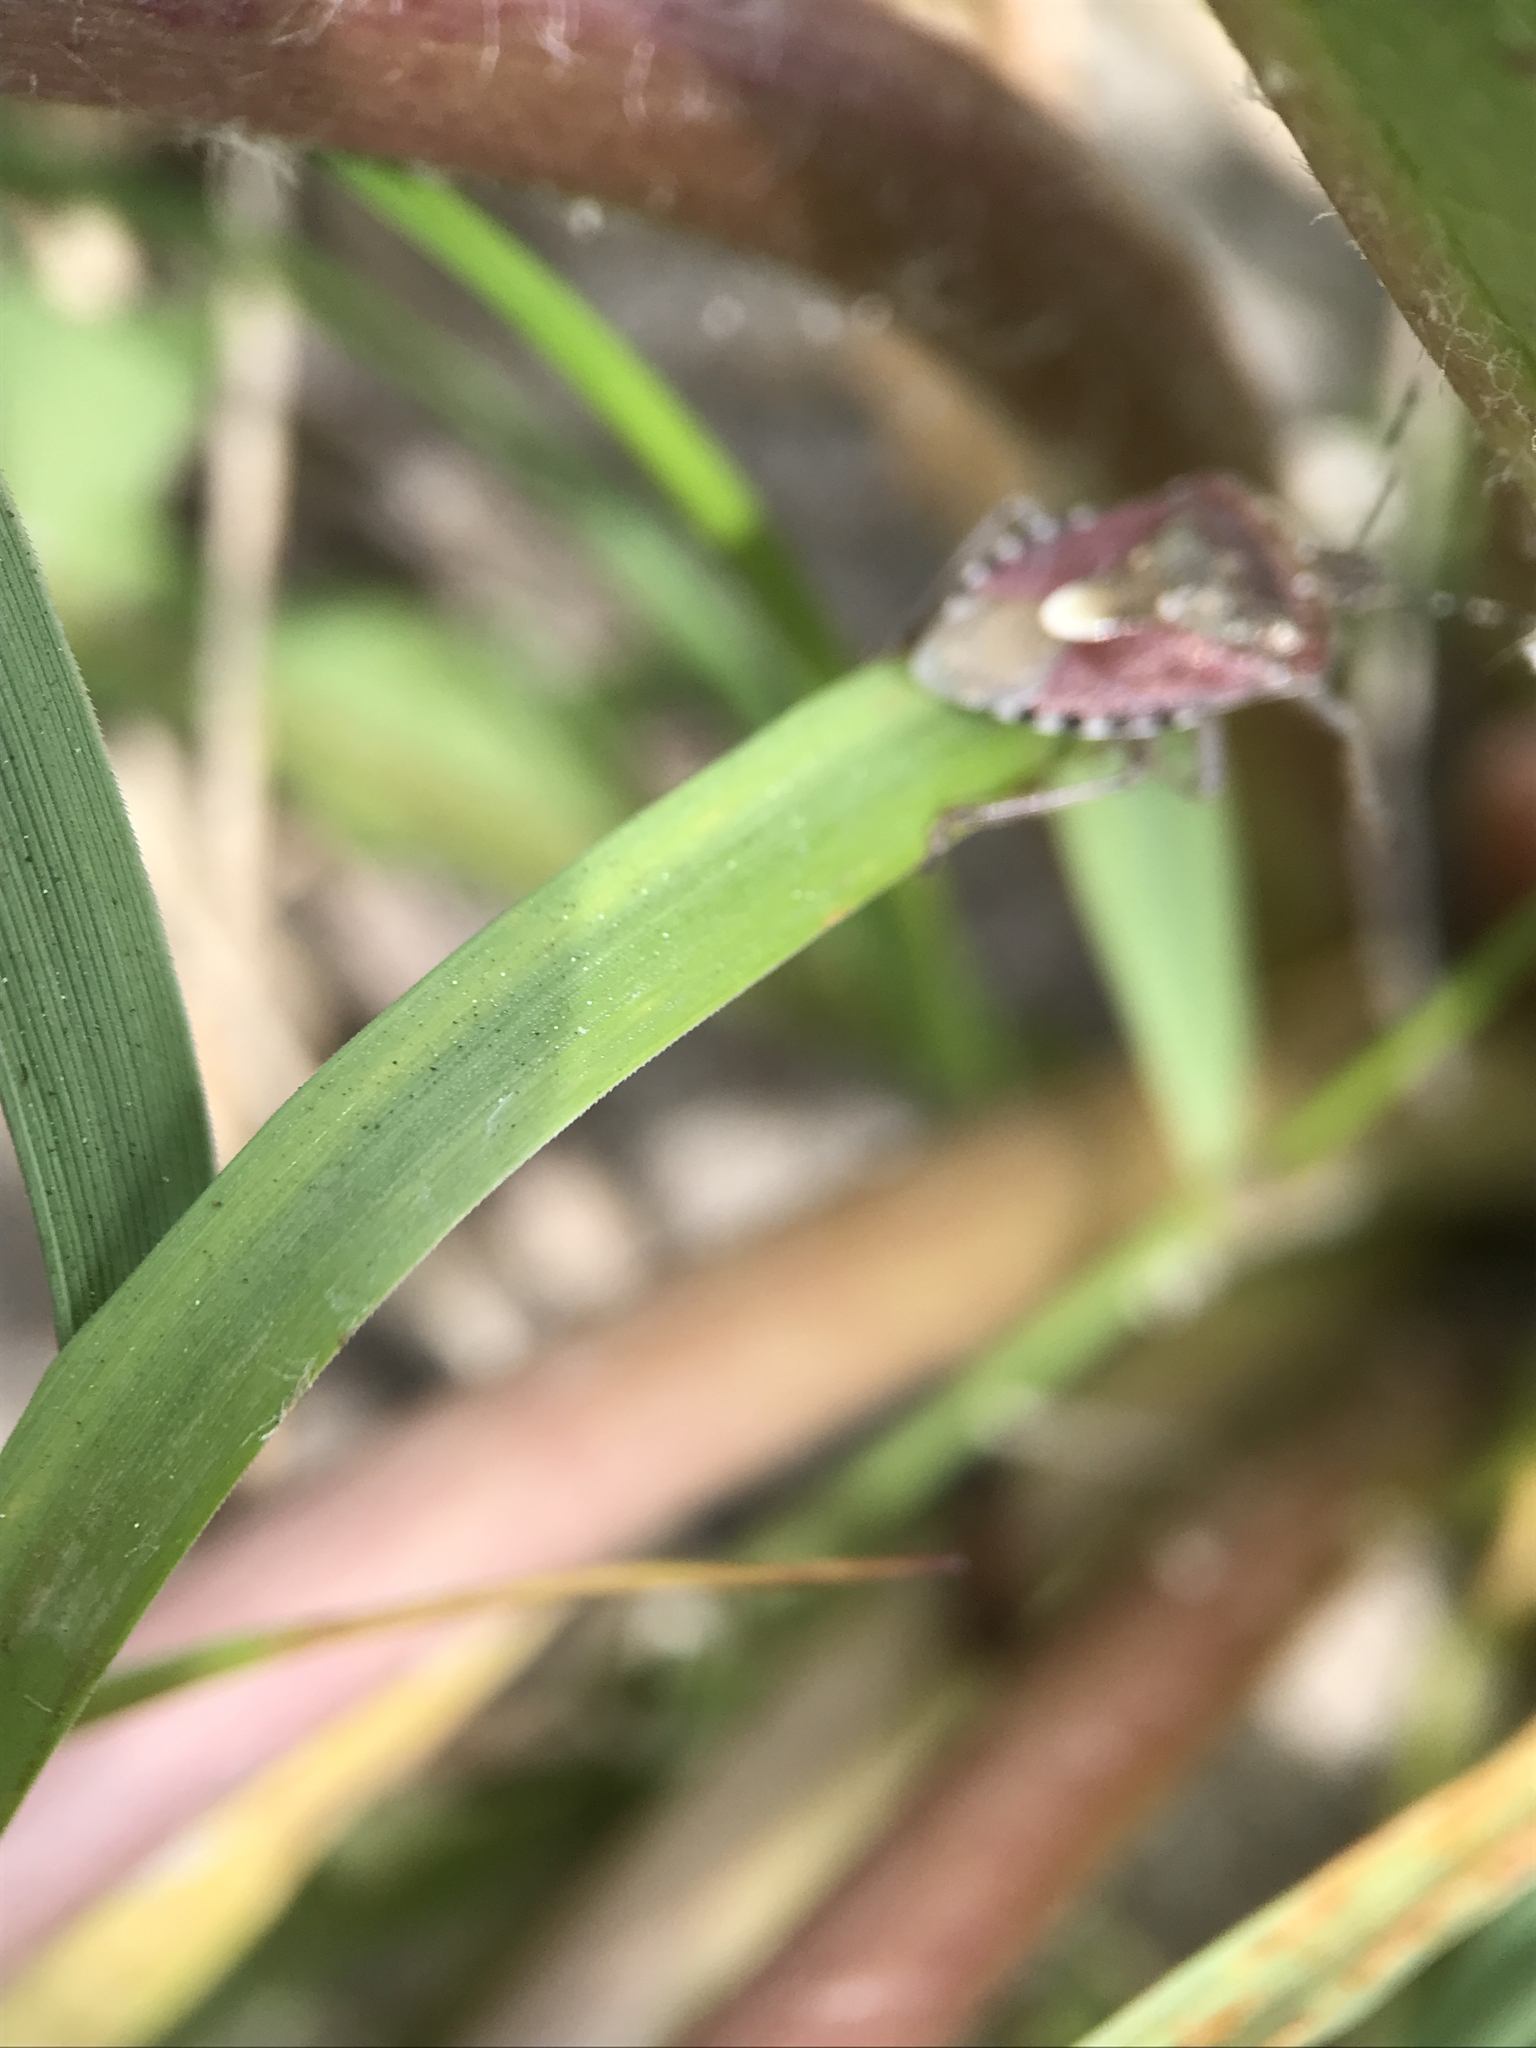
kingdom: Animalia
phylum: Arthropoda
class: Insecta
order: Hemiptera
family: Pentatomidae
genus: Dolycoris
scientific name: Dolycoris baccarum
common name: Sloe bug
